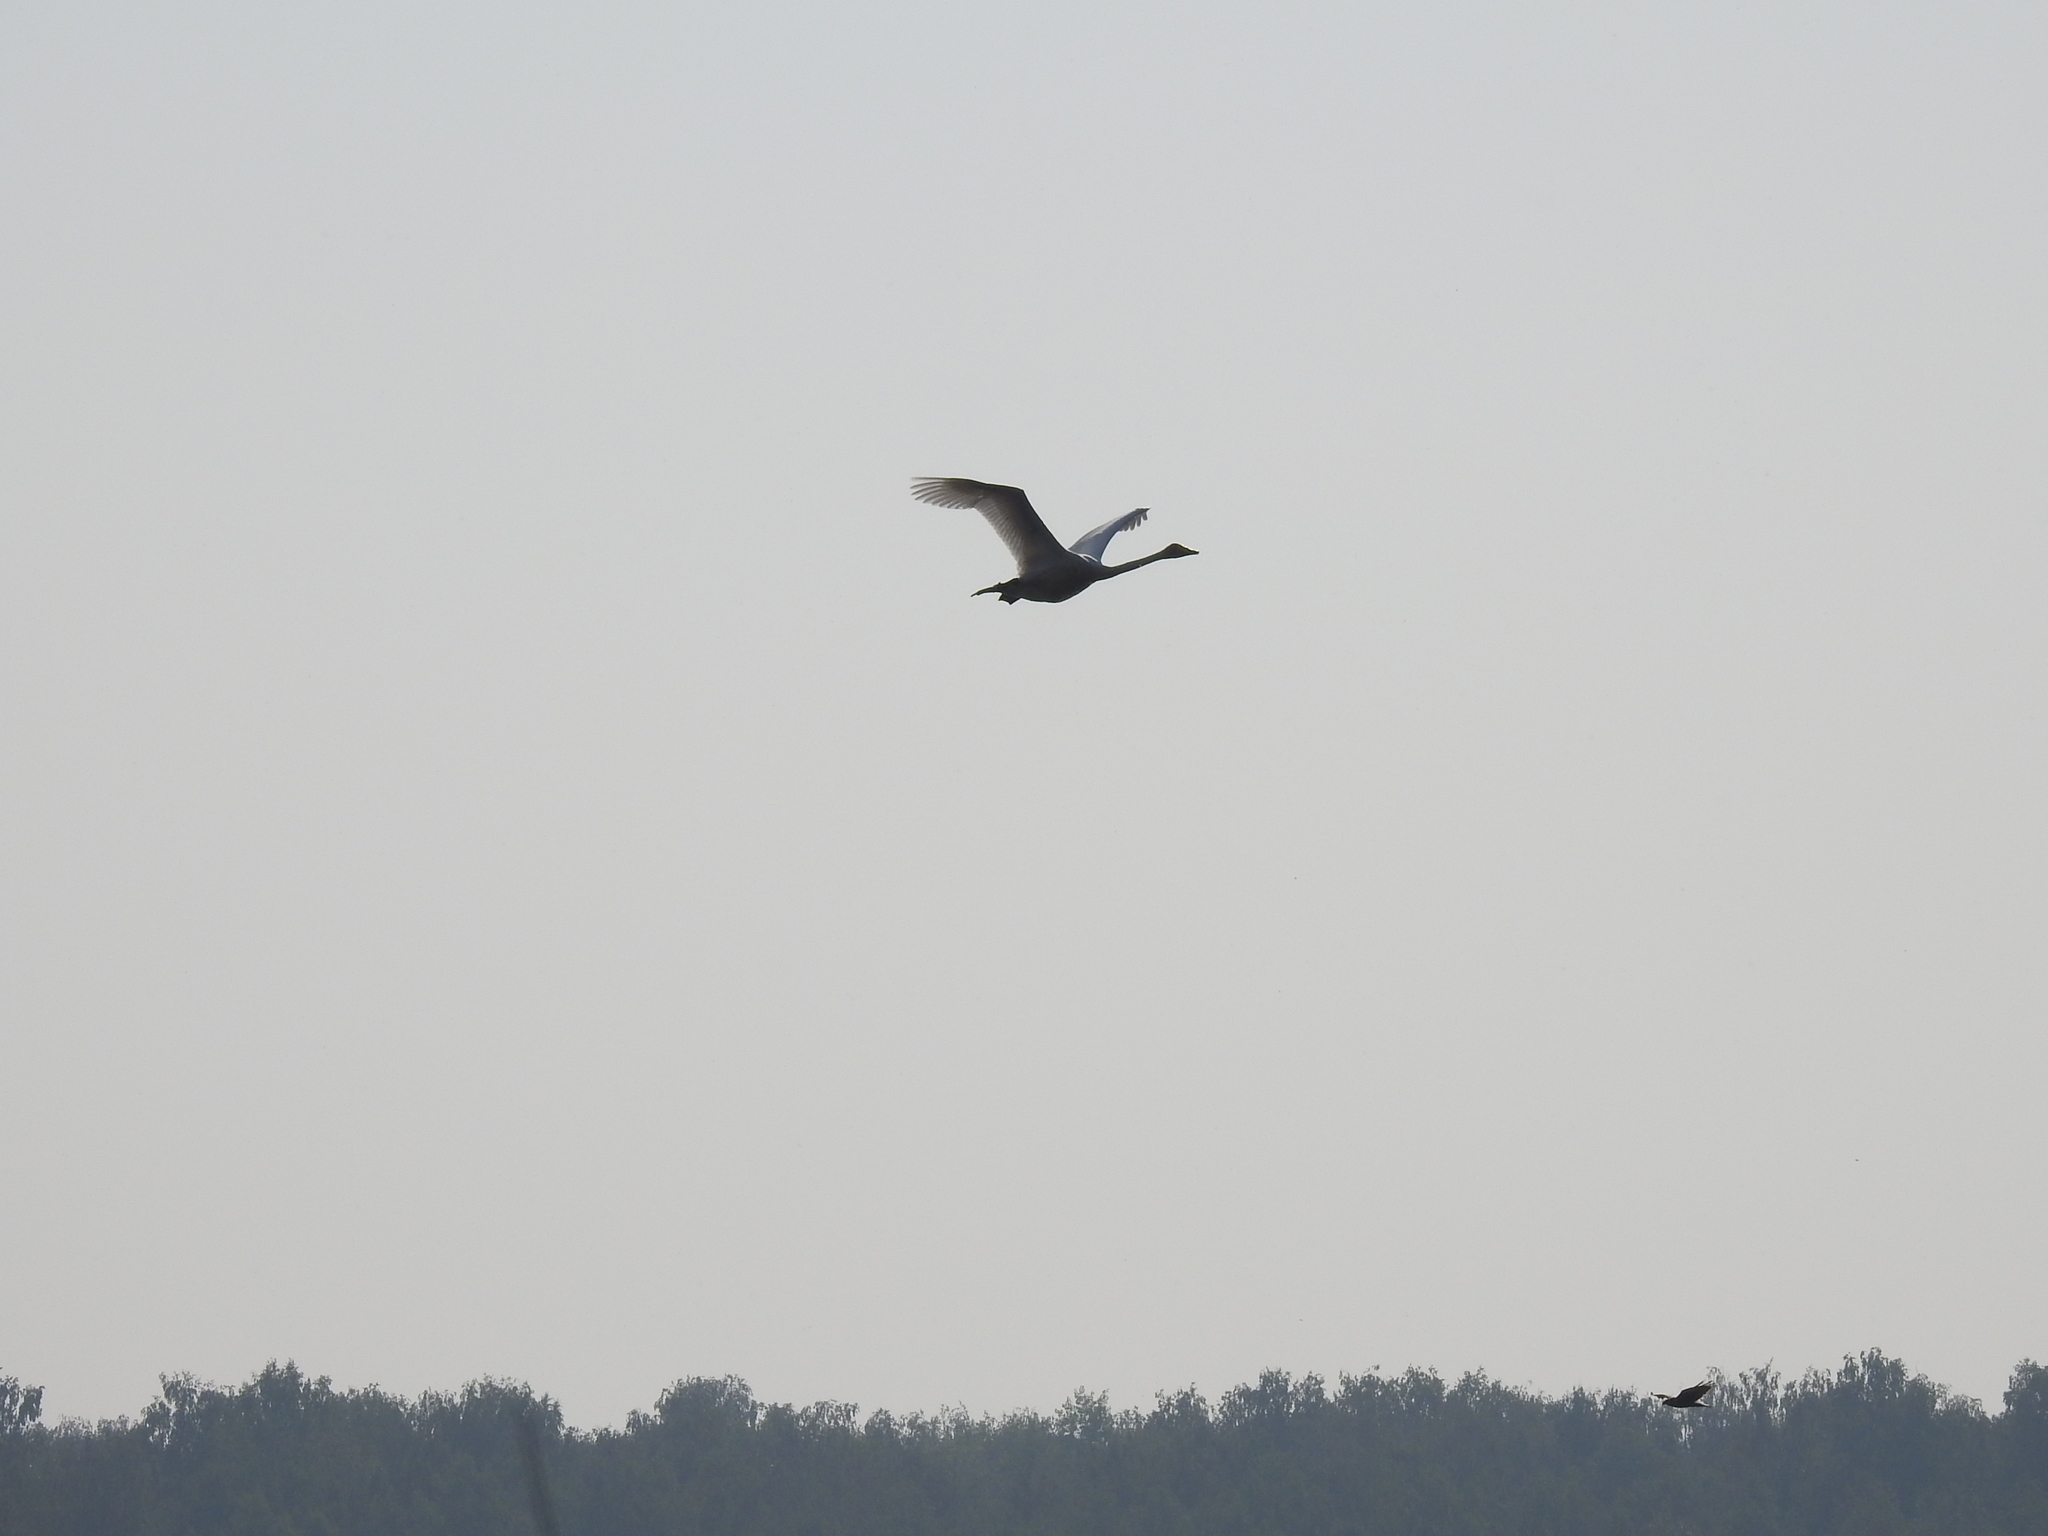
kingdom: Animalia
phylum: Chordata
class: Aves
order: Anseriformes
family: Anatidae
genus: Cygnus
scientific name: Cygnus cygnus
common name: Whooper swan
